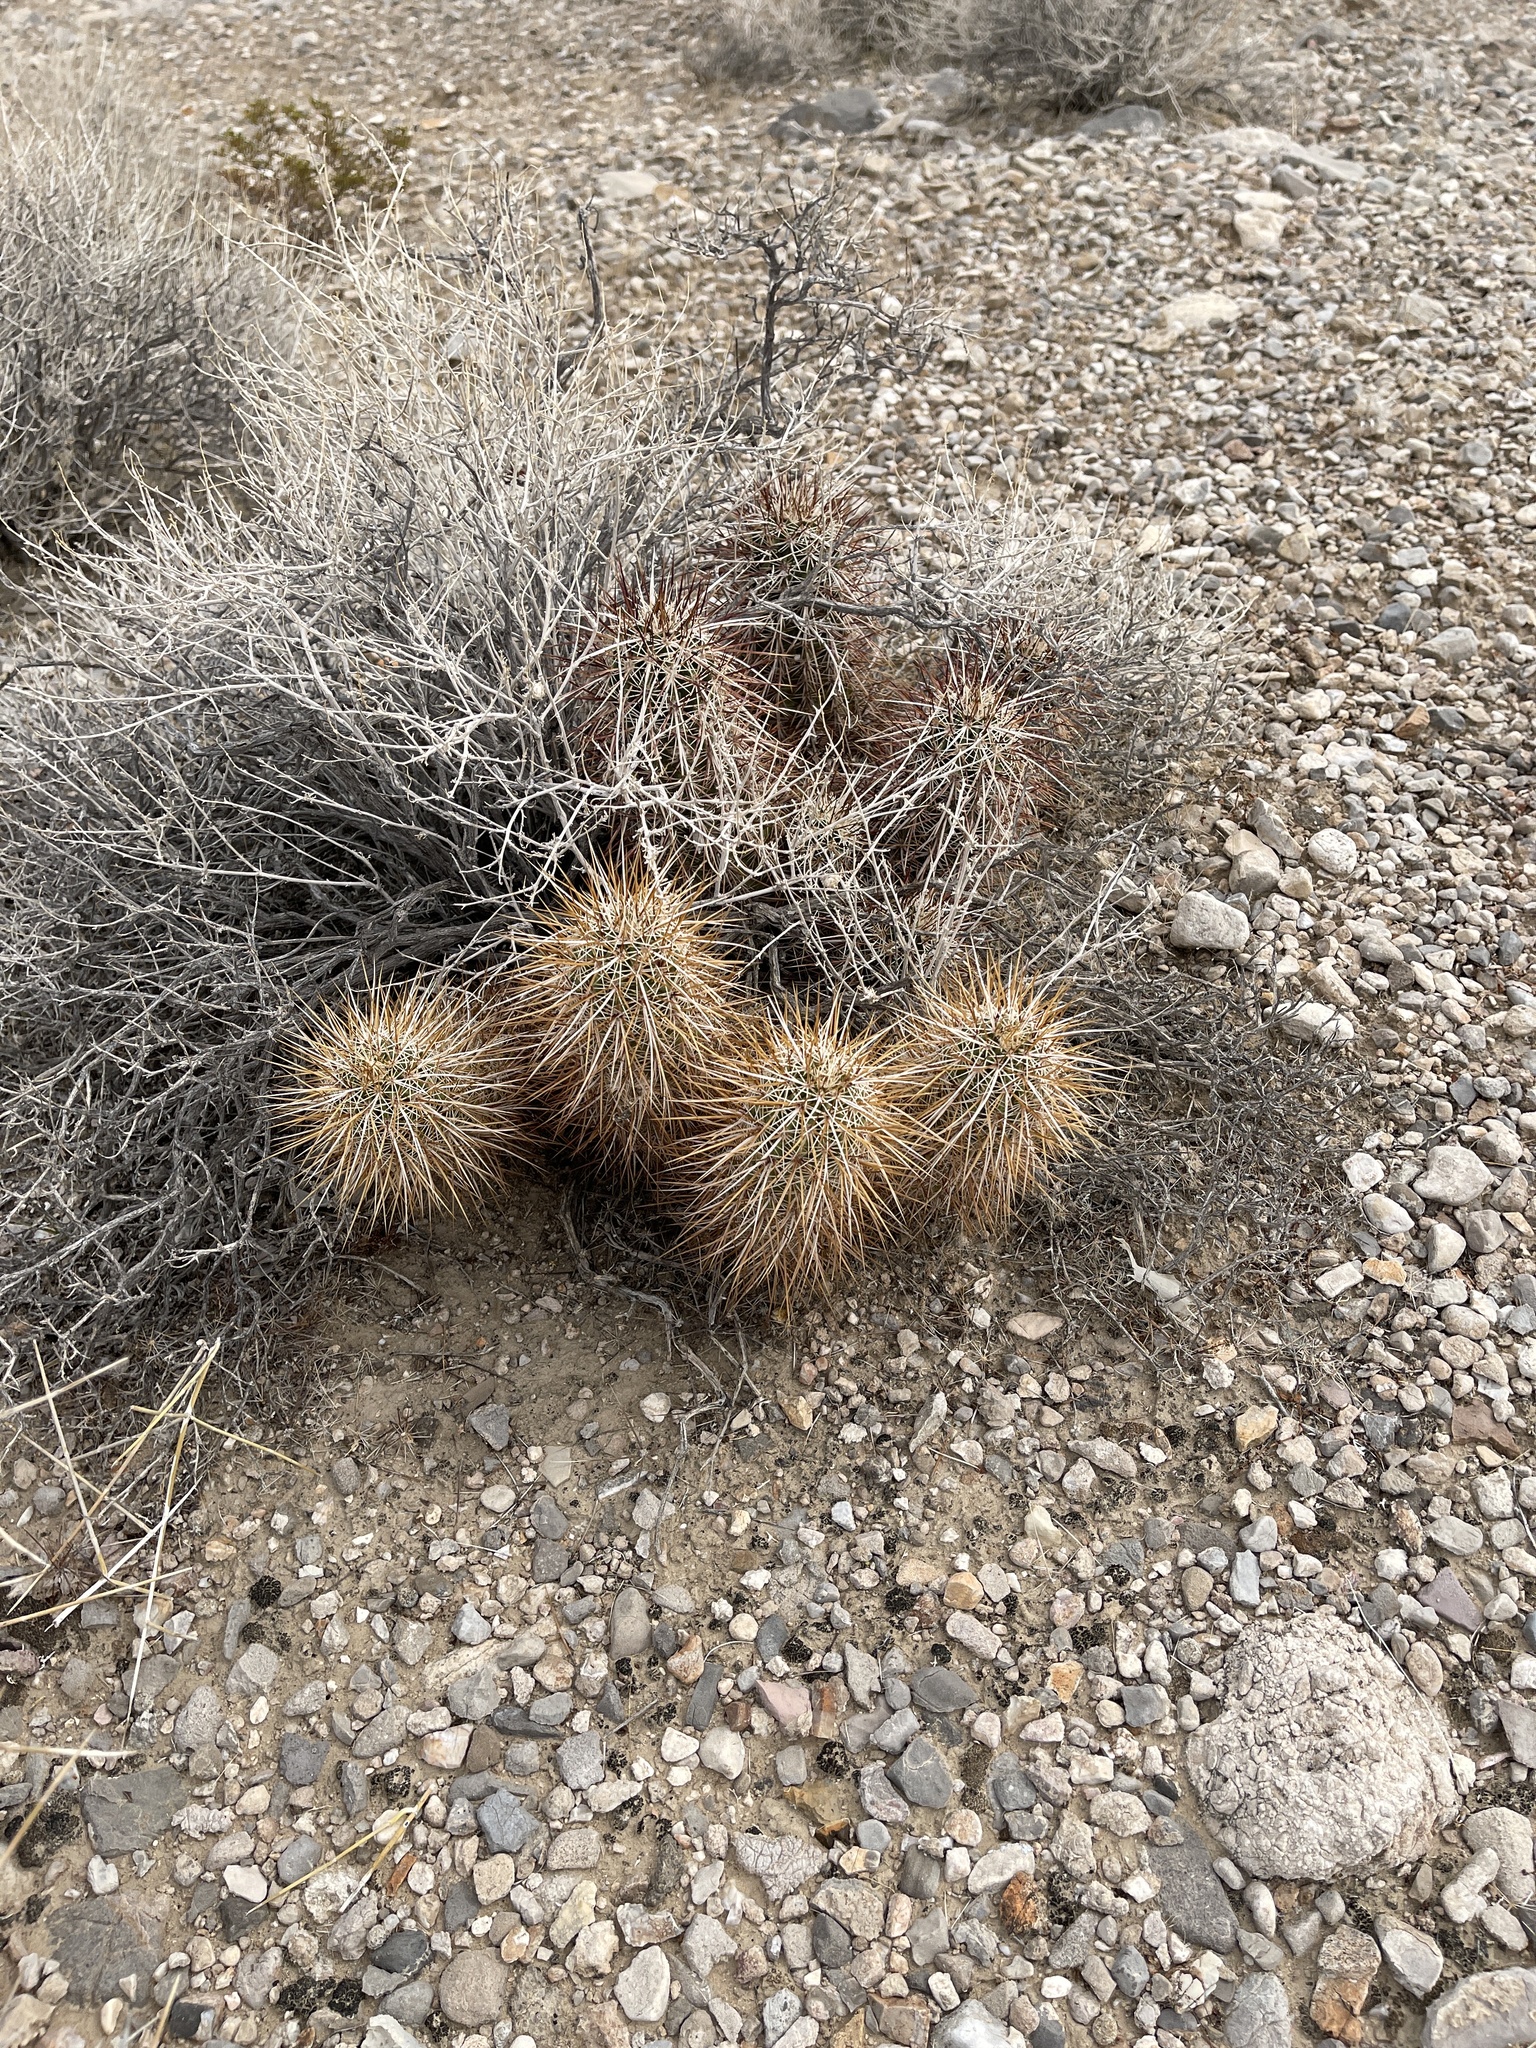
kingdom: Plantae
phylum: Tracheophyta
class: Magnoliopsida
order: Caryophyllales
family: Cactaceae
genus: Echinocereus
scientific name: Echinocereus engelmannii
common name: Engelmann's hedgehog cactus
